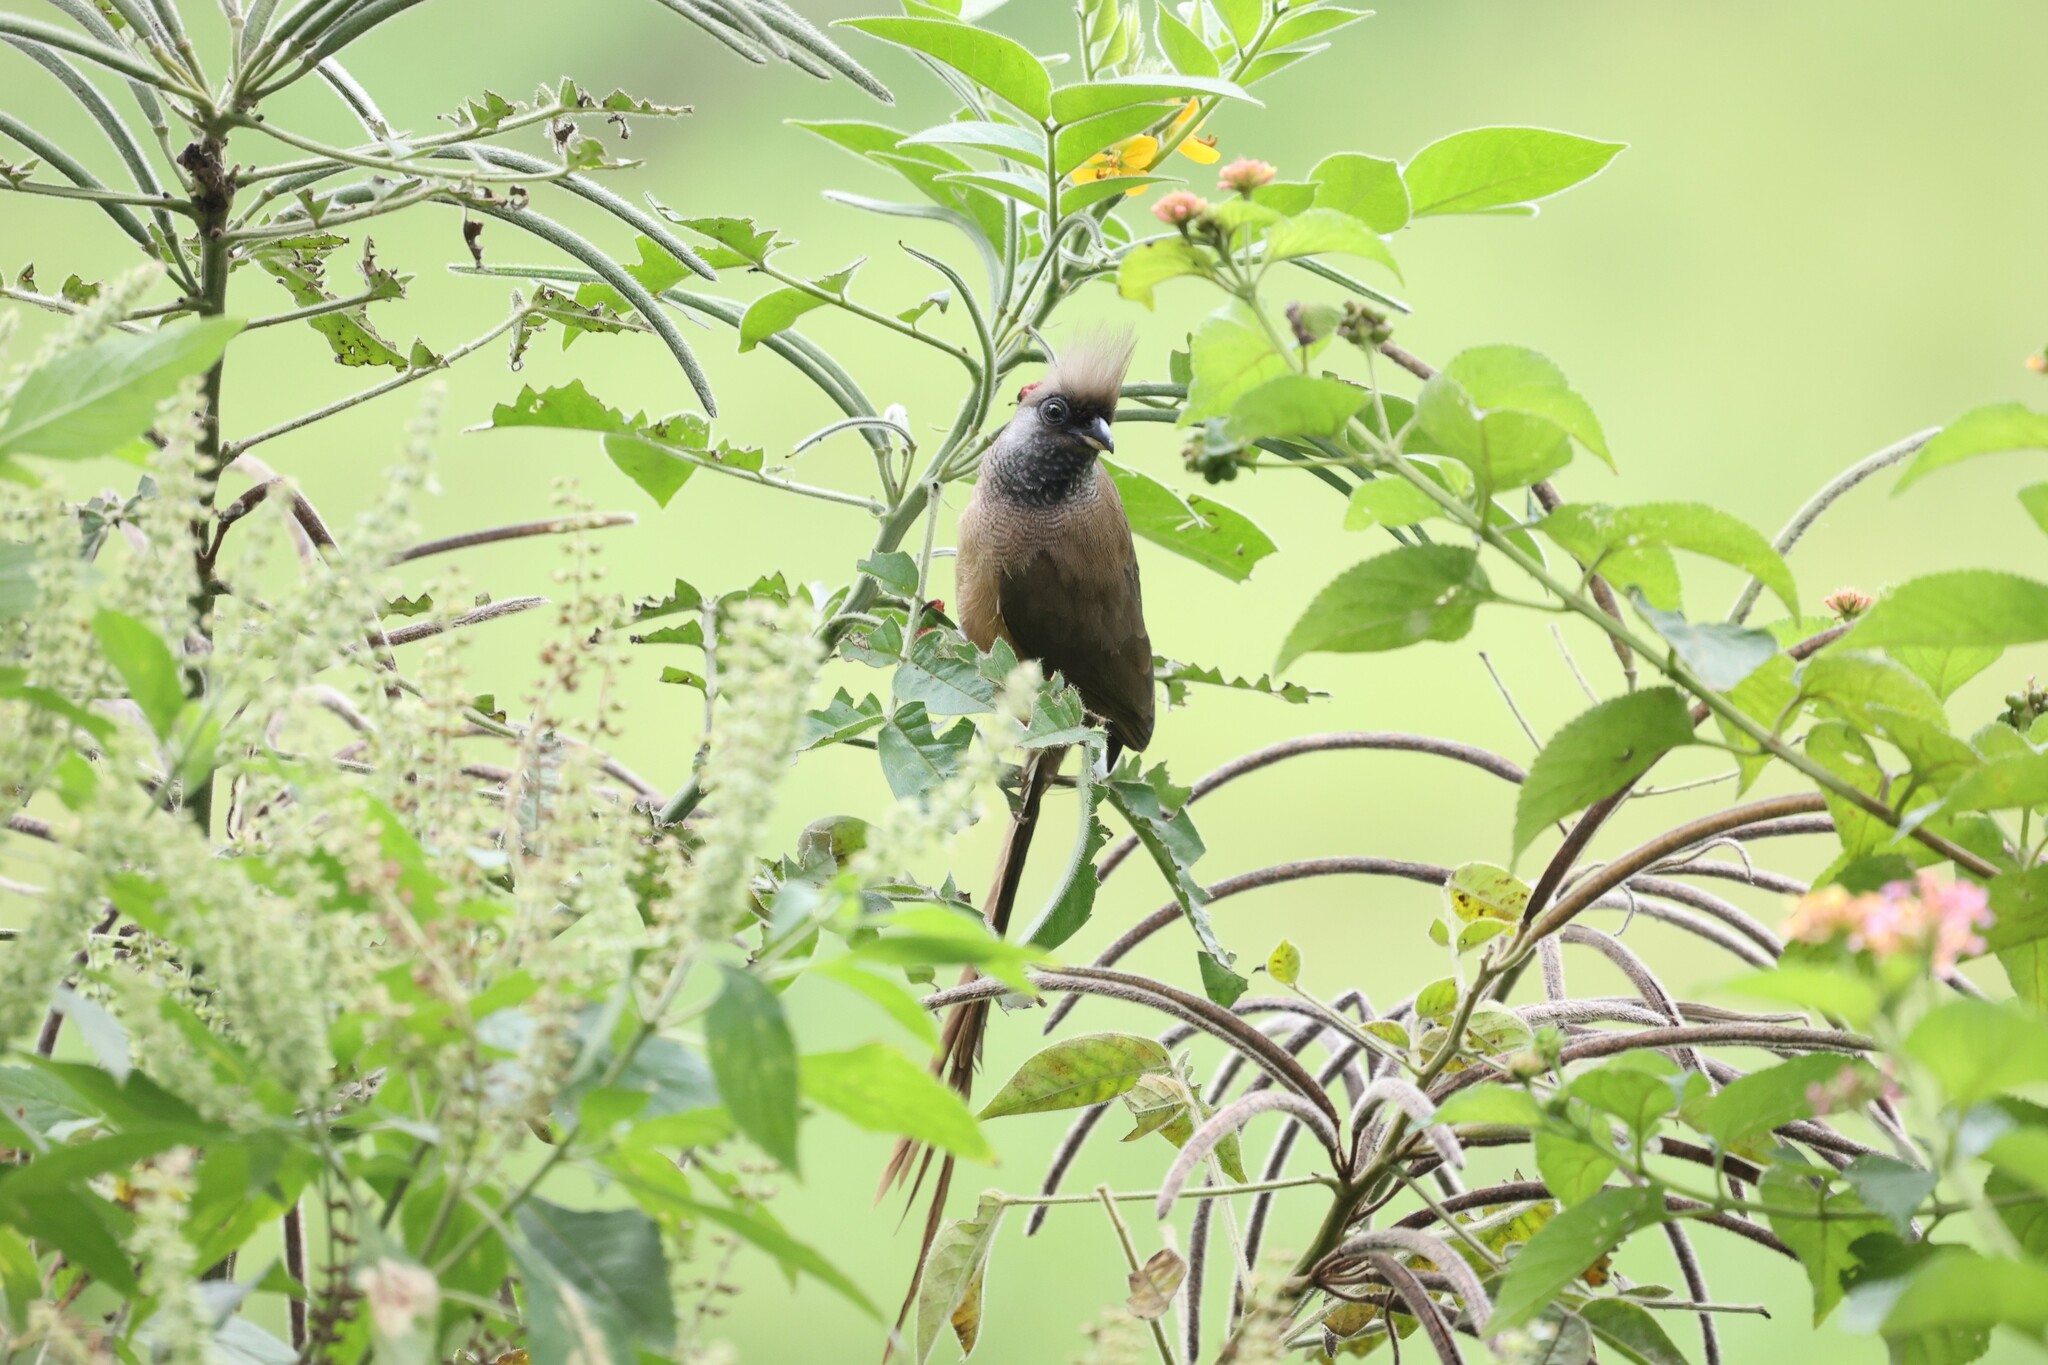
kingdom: Animalia
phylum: Chordata
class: Aves
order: Coliiformes
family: Coliidae
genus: Colius
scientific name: Colius striatus
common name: Speckled mousebird
